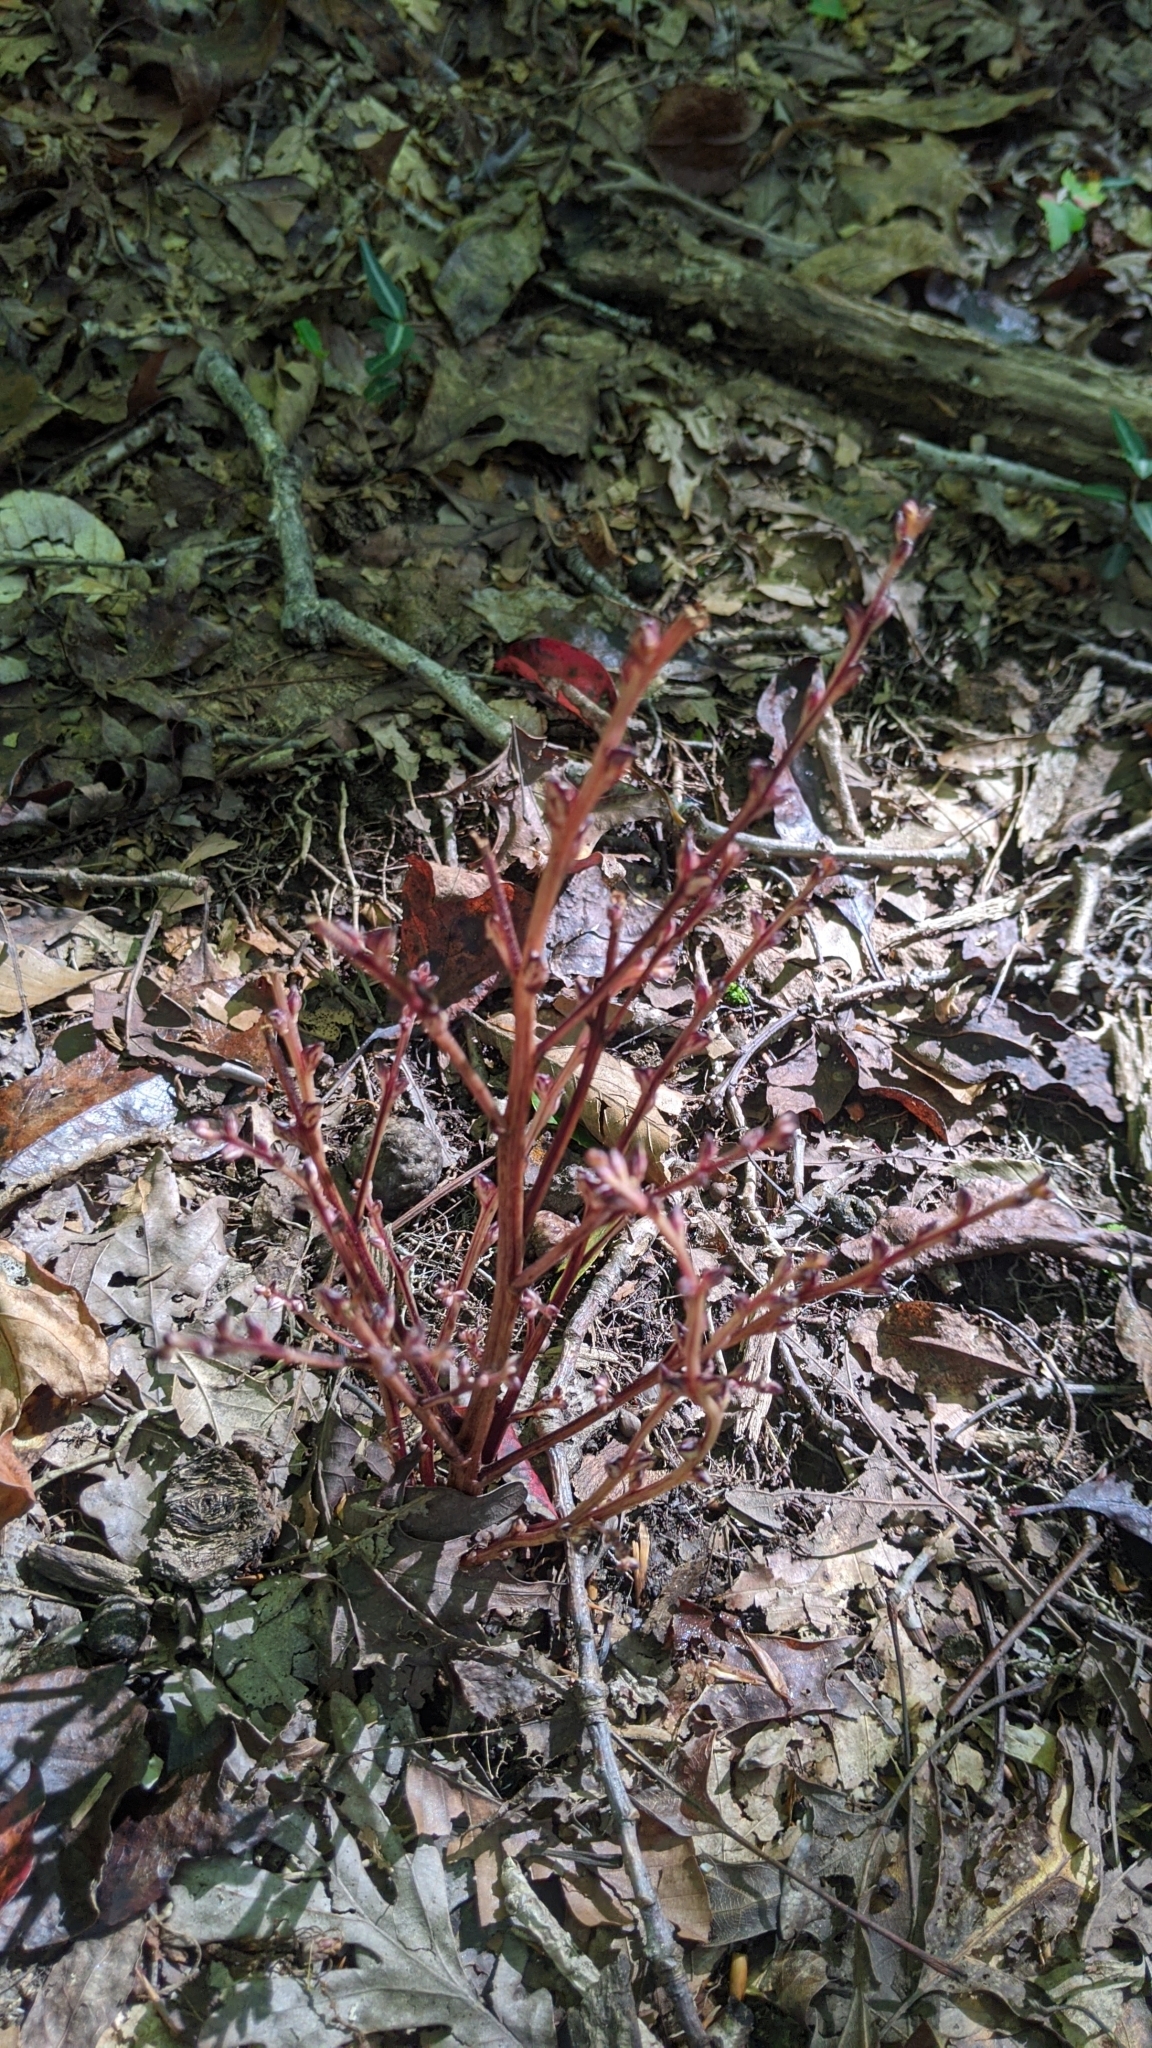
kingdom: Plantae
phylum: Tracheophyta
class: Magnoliopsida
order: Lamiales
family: Orobanchaceae
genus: Epifagus
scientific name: Epifagus virginiana
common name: Beechdrops
